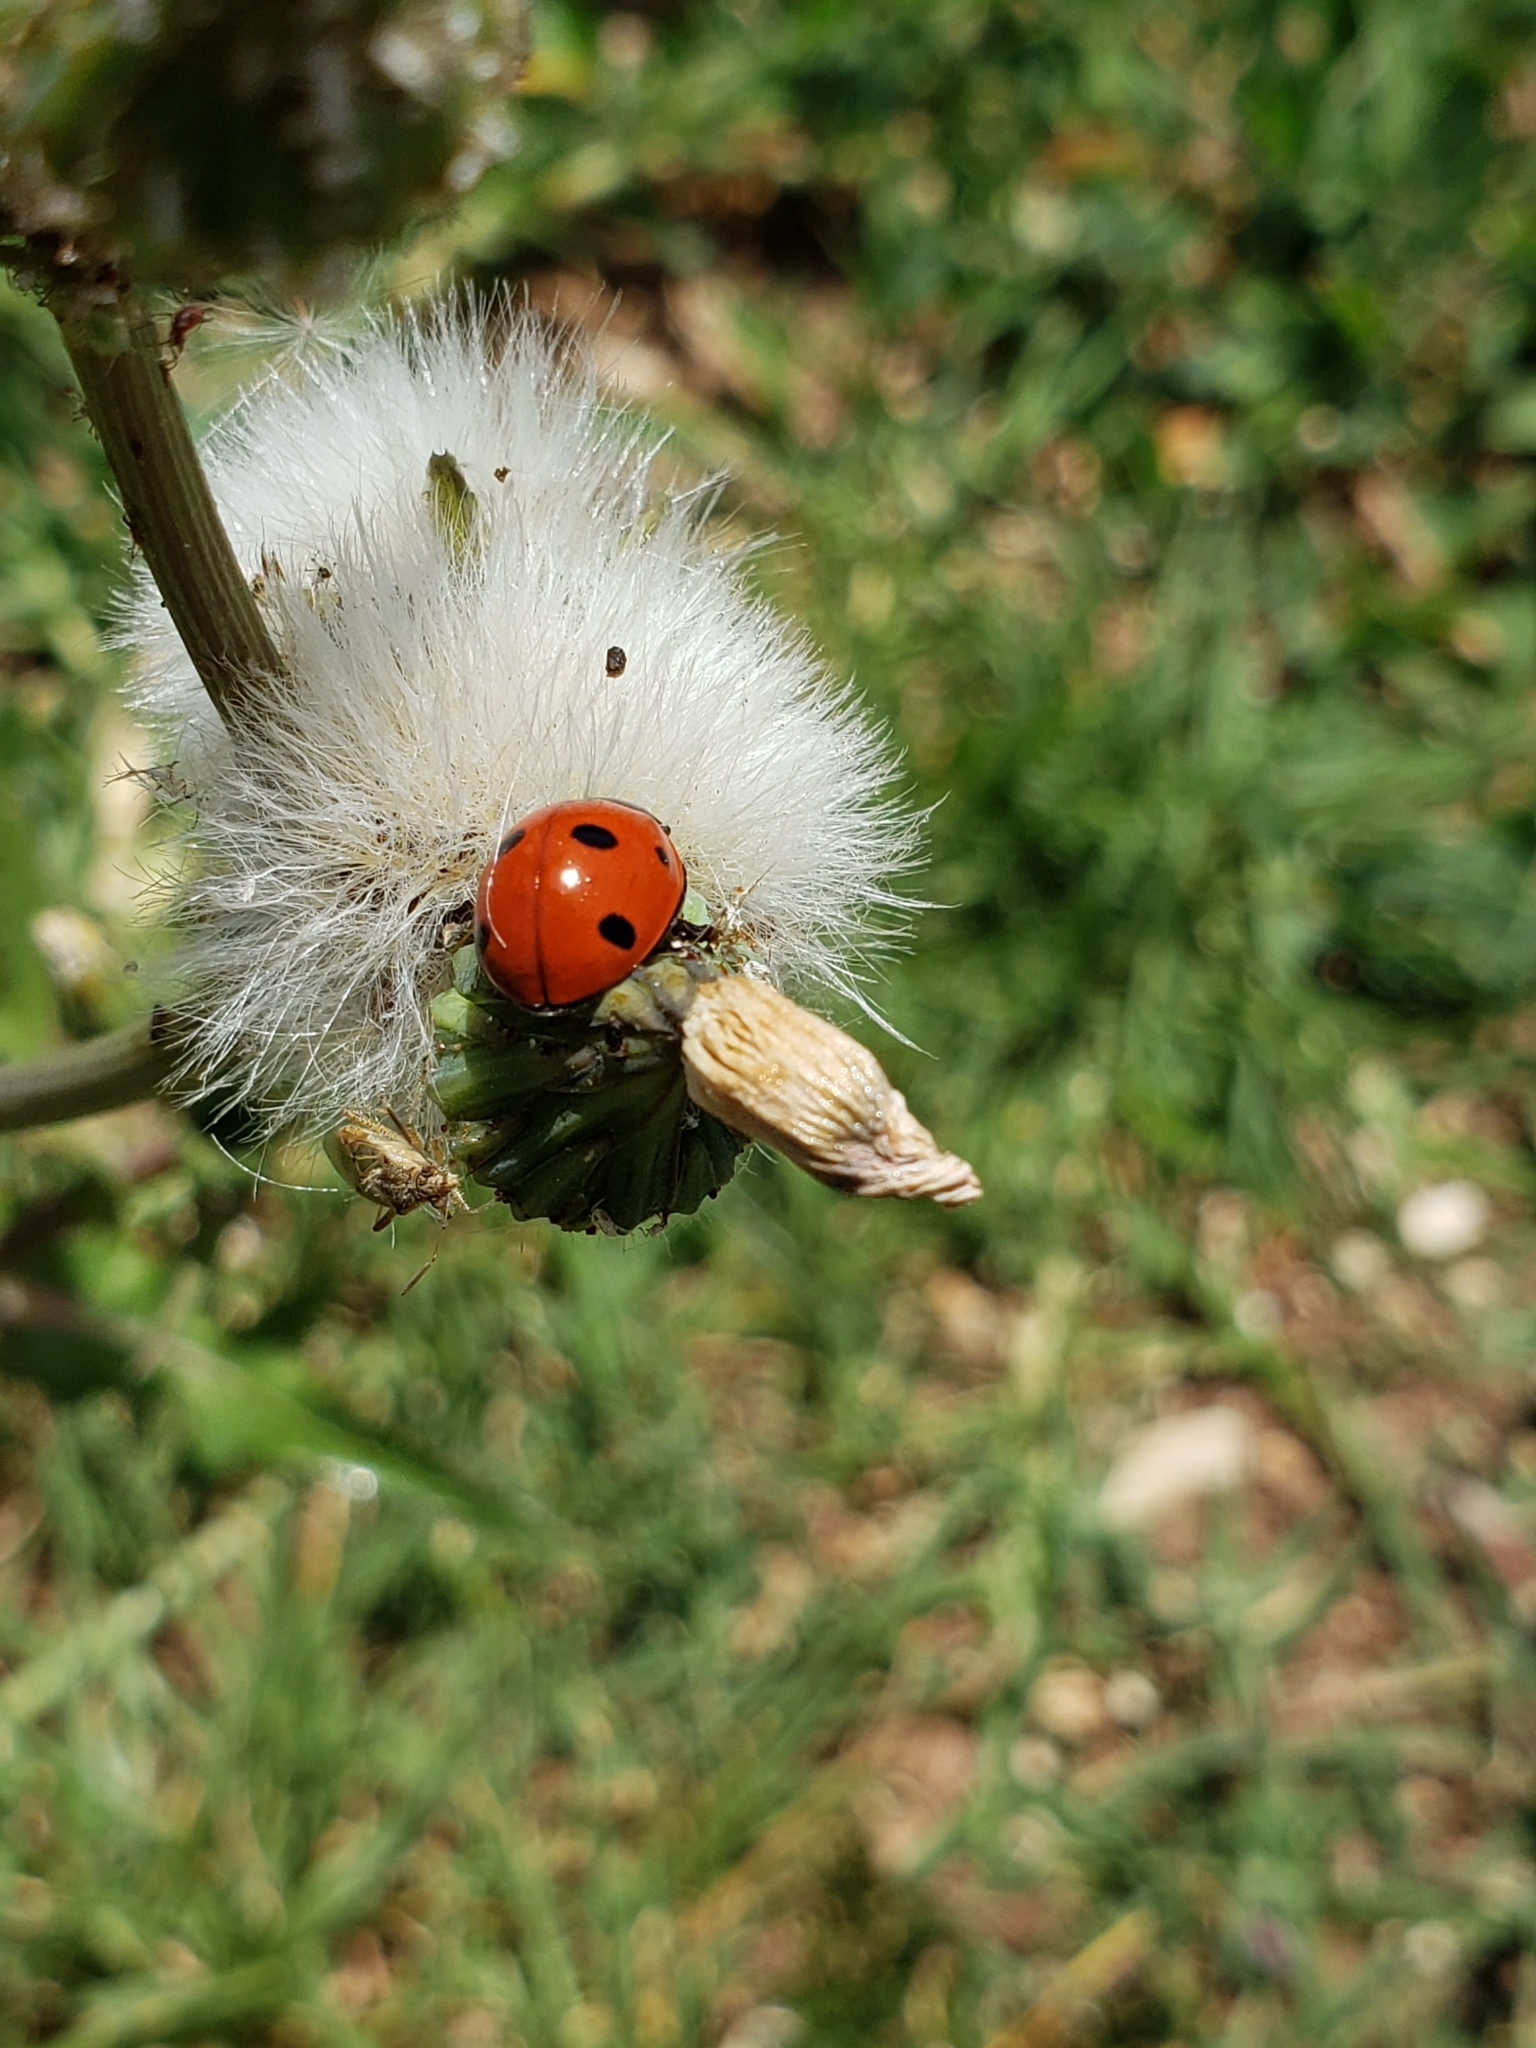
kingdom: Animalia
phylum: Arthropoda
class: Insecta
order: Coleoptera
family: Coccinellidae
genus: Coccinella
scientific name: Coccinella septempunctata
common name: Sevenspotted lady beetle
